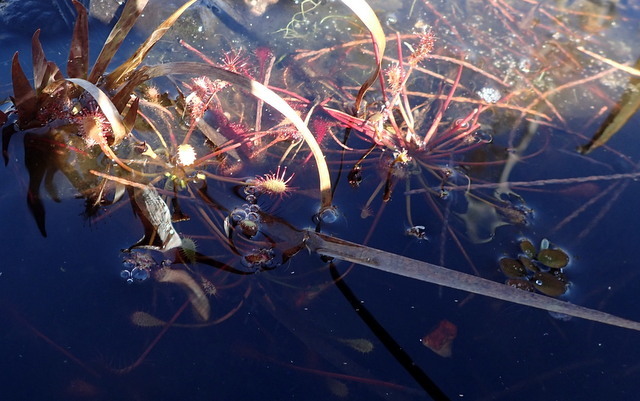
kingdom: Plantae
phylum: Tracheophyta
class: Magnoliopsida
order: Caryophyllales
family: Droseraceae
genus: Drosera
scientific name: Drosera intermedia
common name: Oblong-leaved sundew
